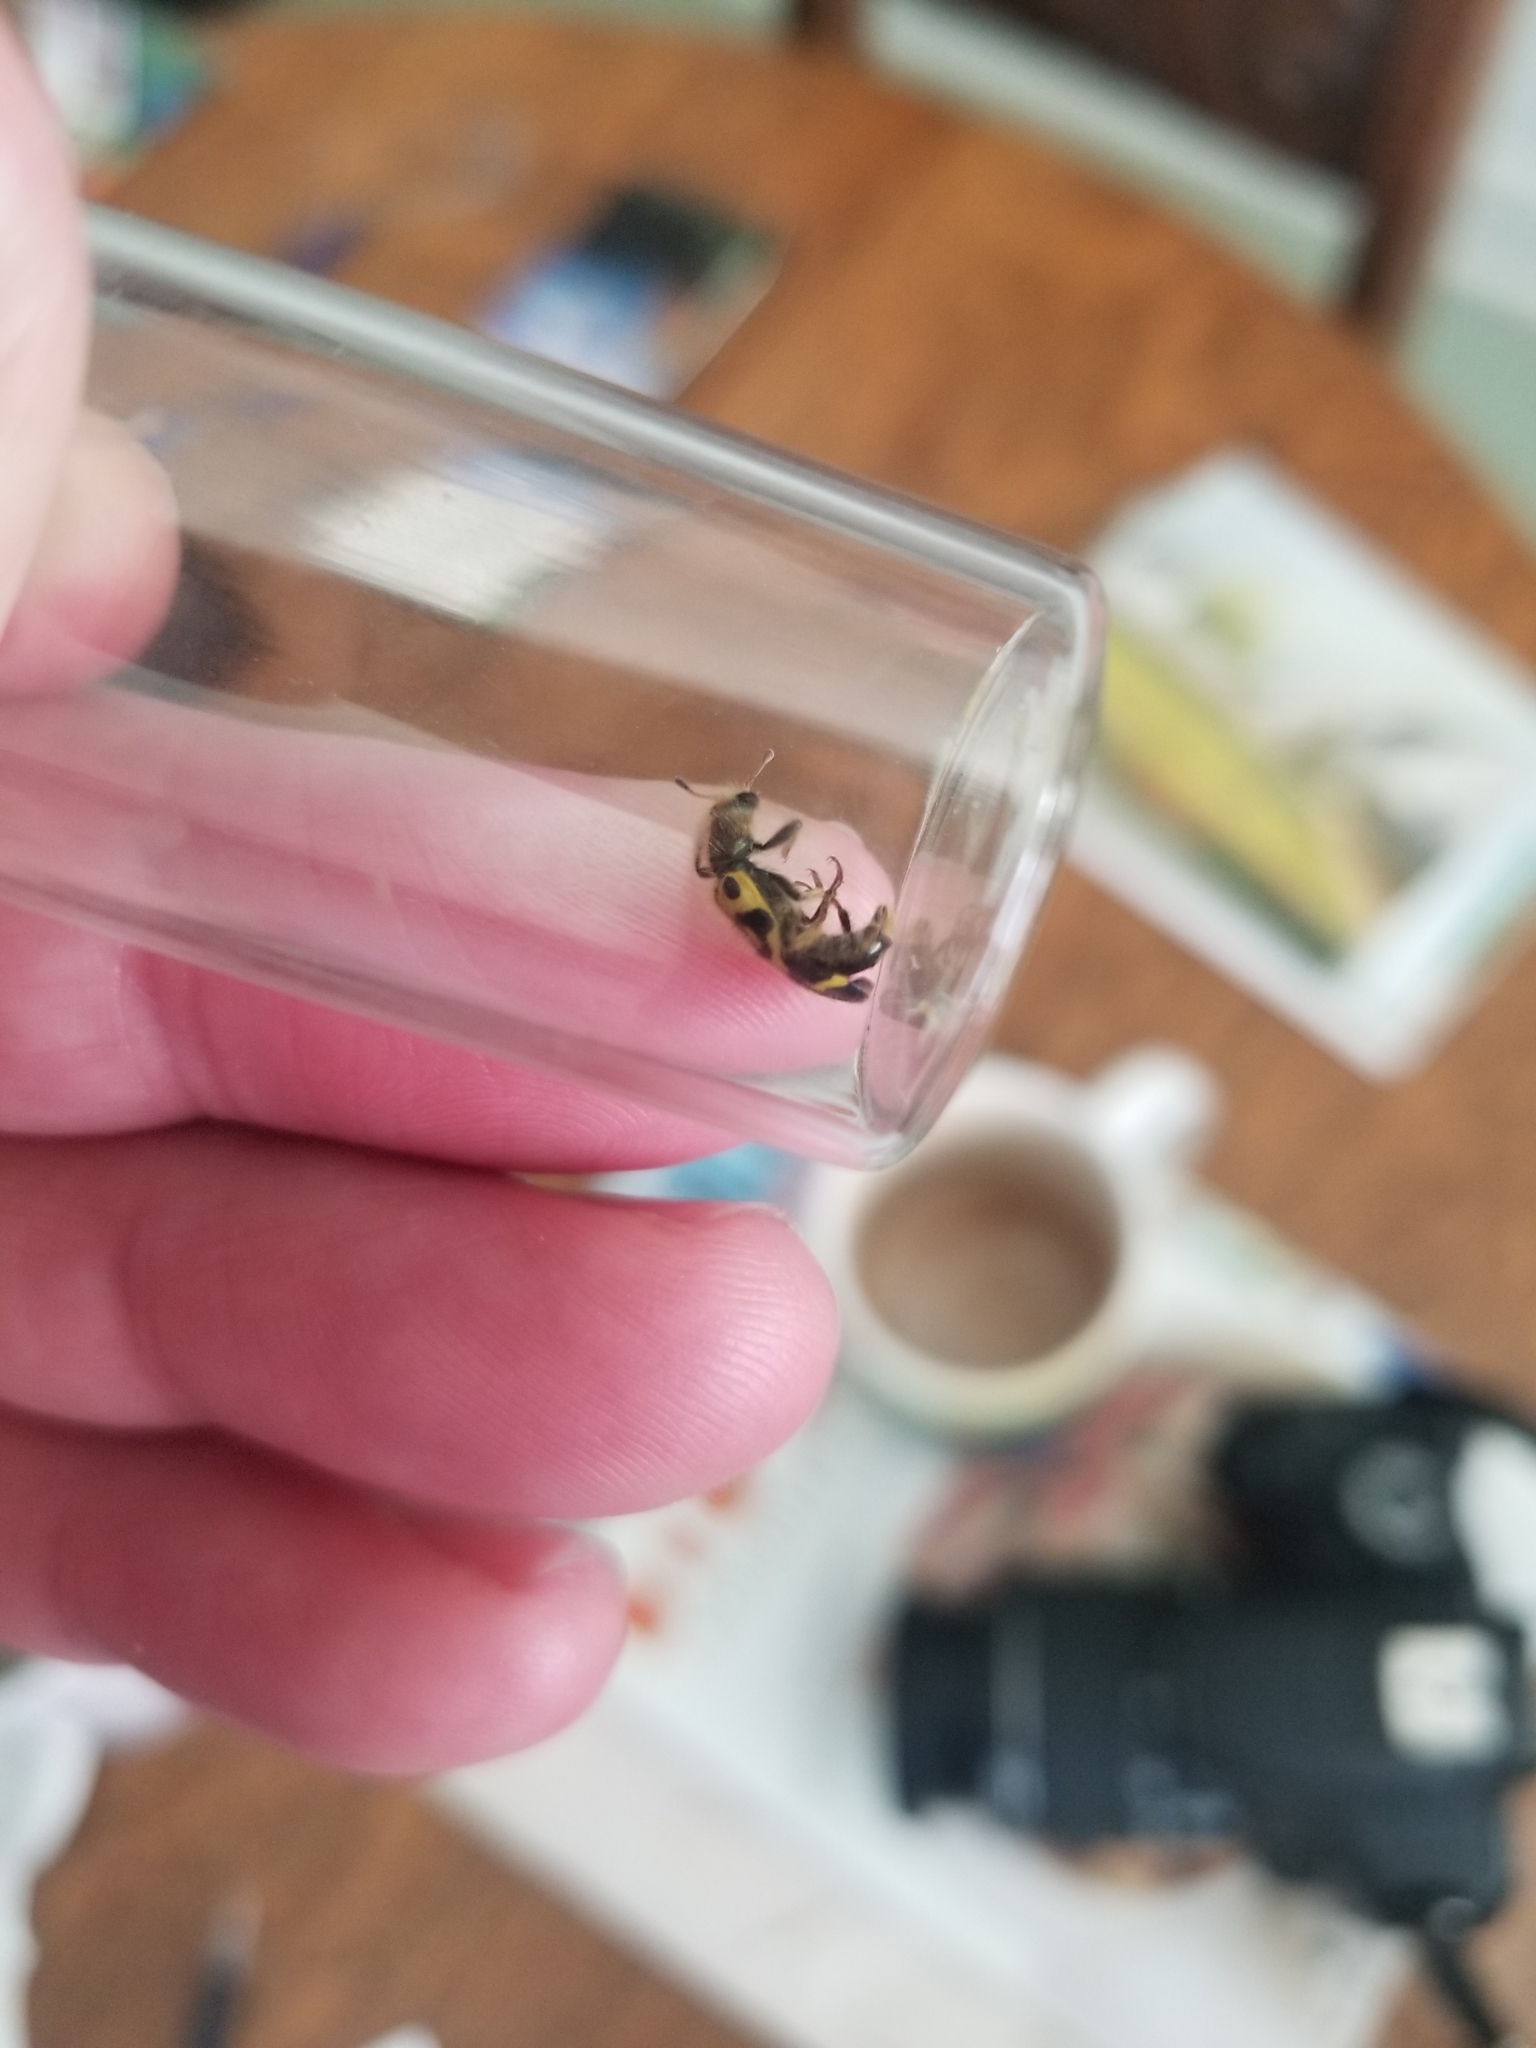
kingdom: Animalia
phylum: Arthropoda
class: Insecta
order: Coleoptera
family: Cleridae
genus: Trichodes
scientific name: Trichodes ornatus
